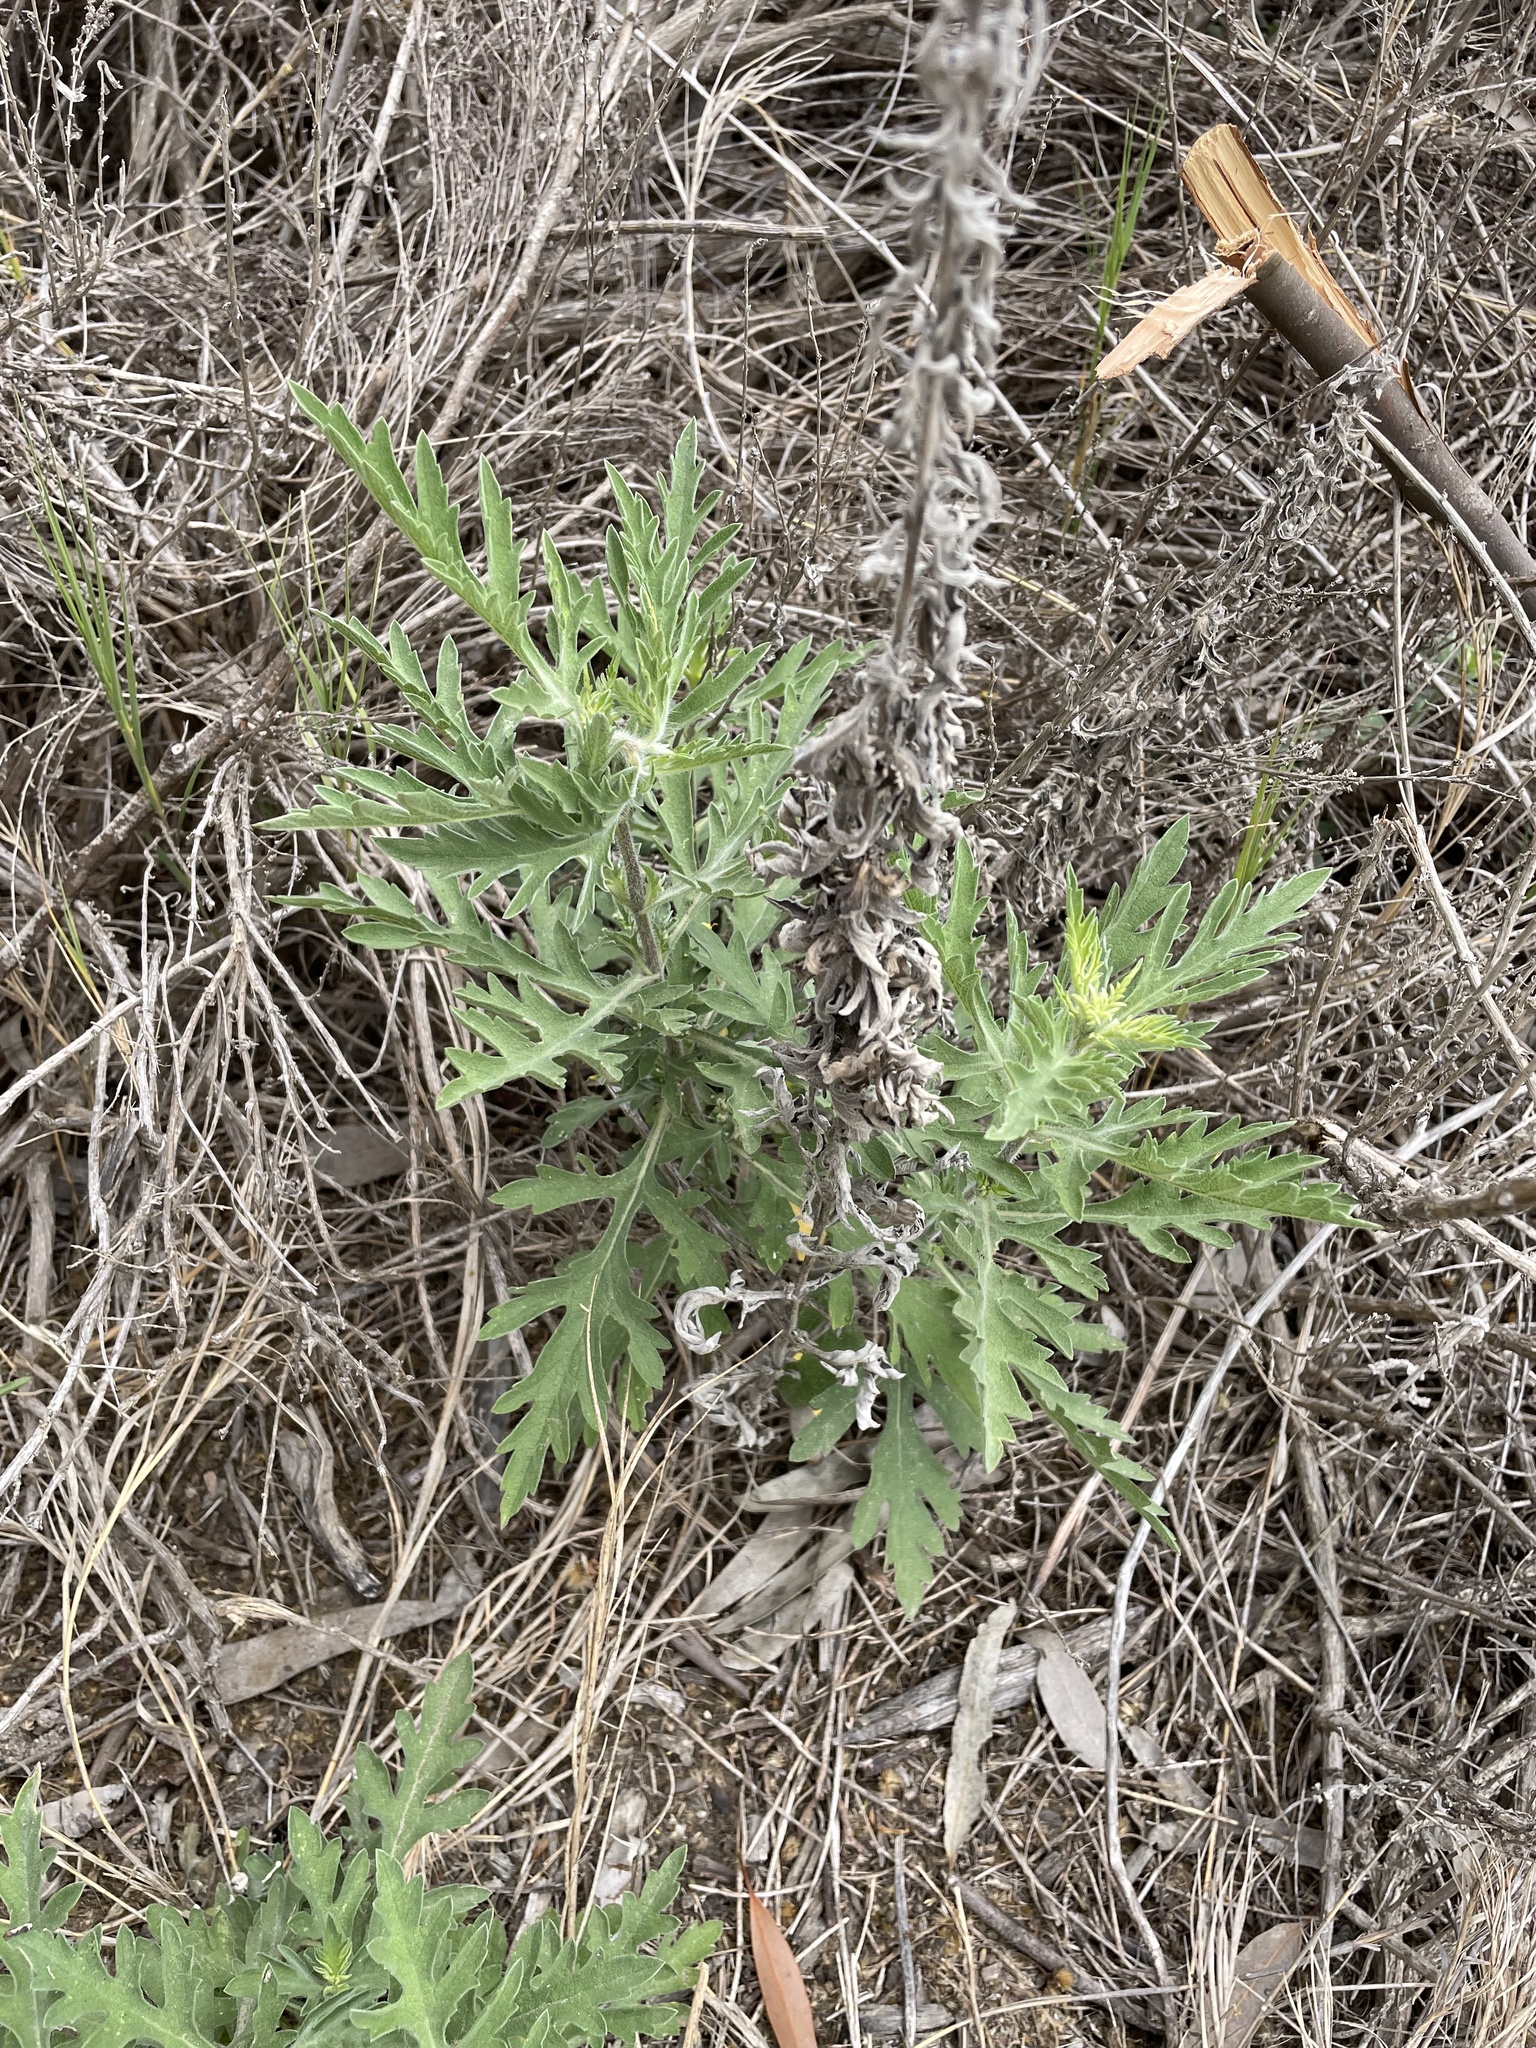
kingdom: Plantae
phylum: Tracheophyta
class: Magnoliopsida
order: Asterales
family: Asteraceae
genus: Ambrosia
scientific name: Ambrosia psilostachya
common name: Perennial ragweed
